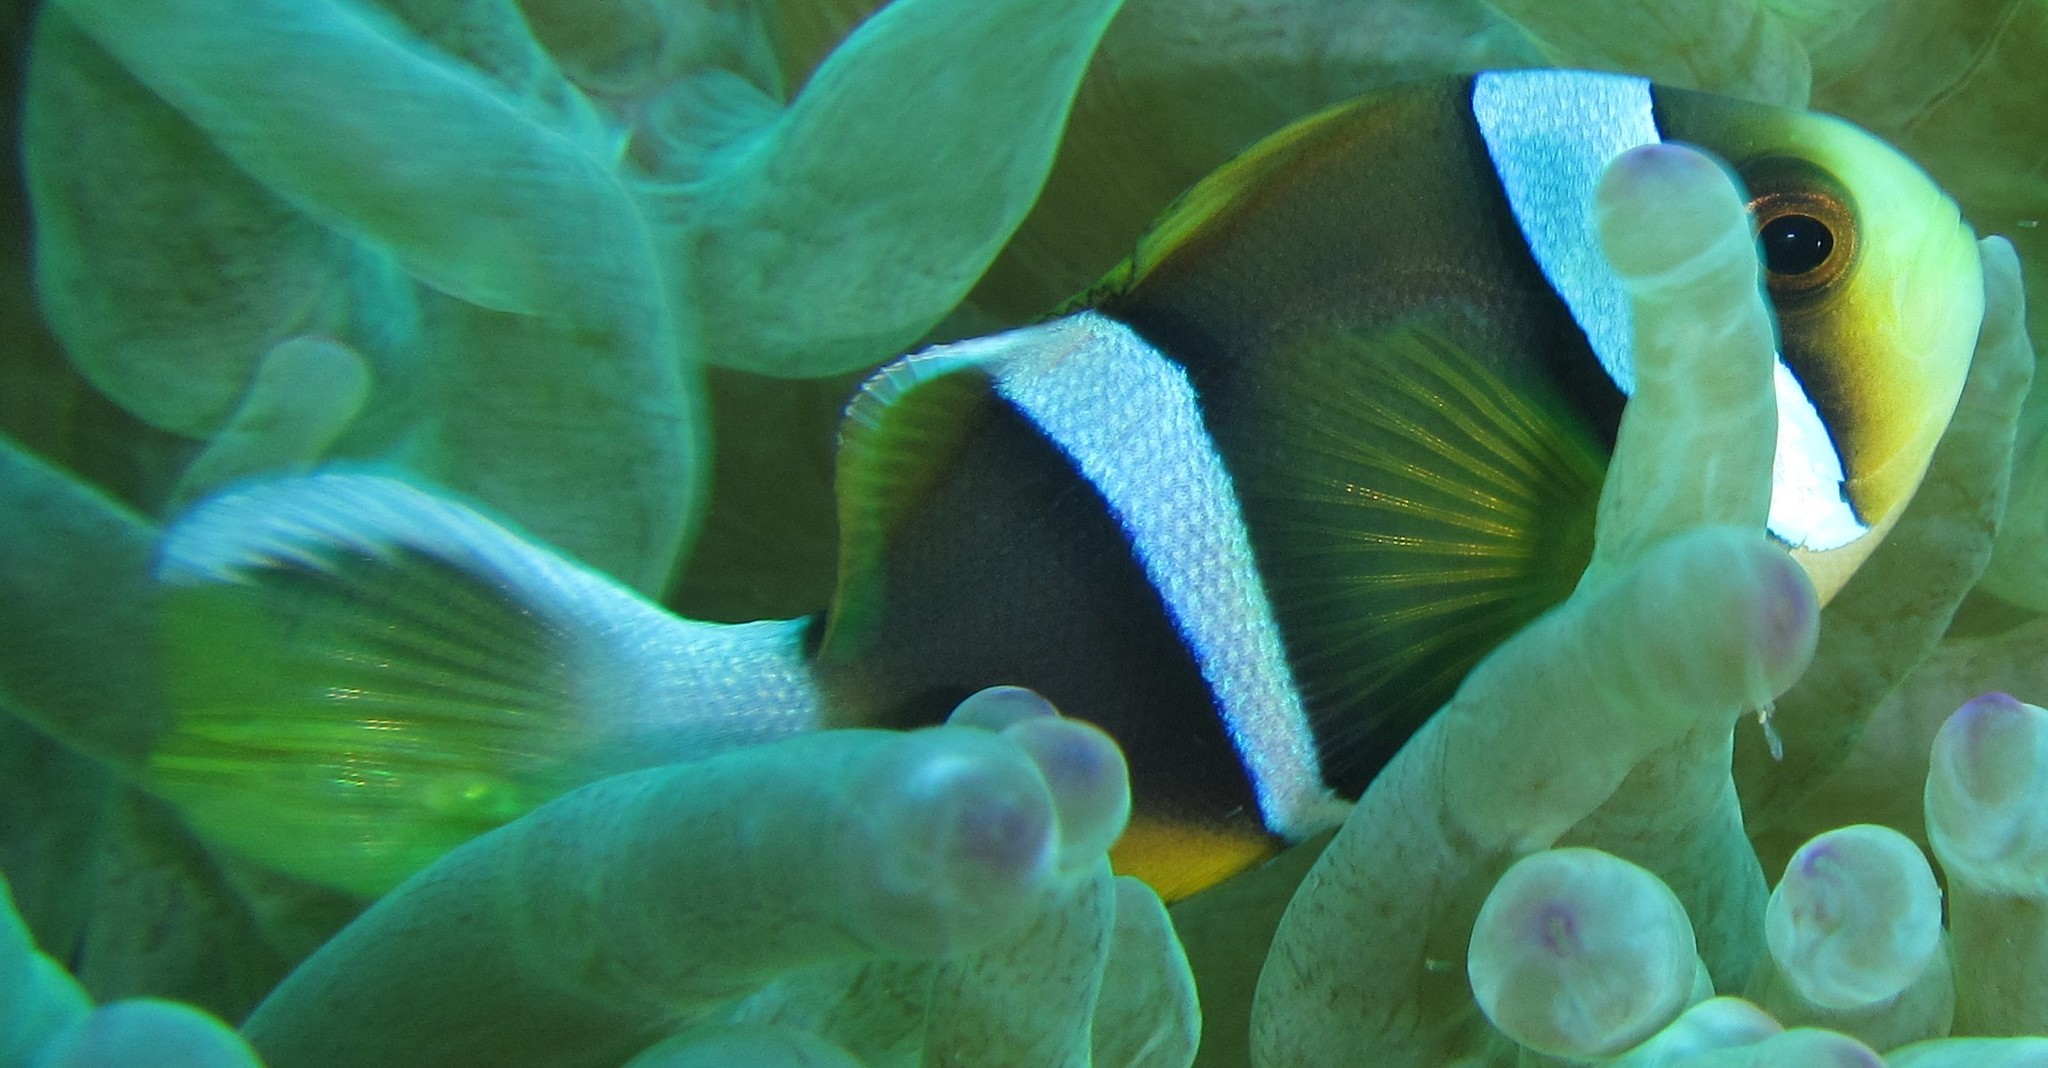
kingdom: Animalia
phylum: Chordata
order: Perciformes
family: Pomacentridae
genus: Amphiprion
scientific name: Amphiprion allardi
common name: Allard's anemonefish
